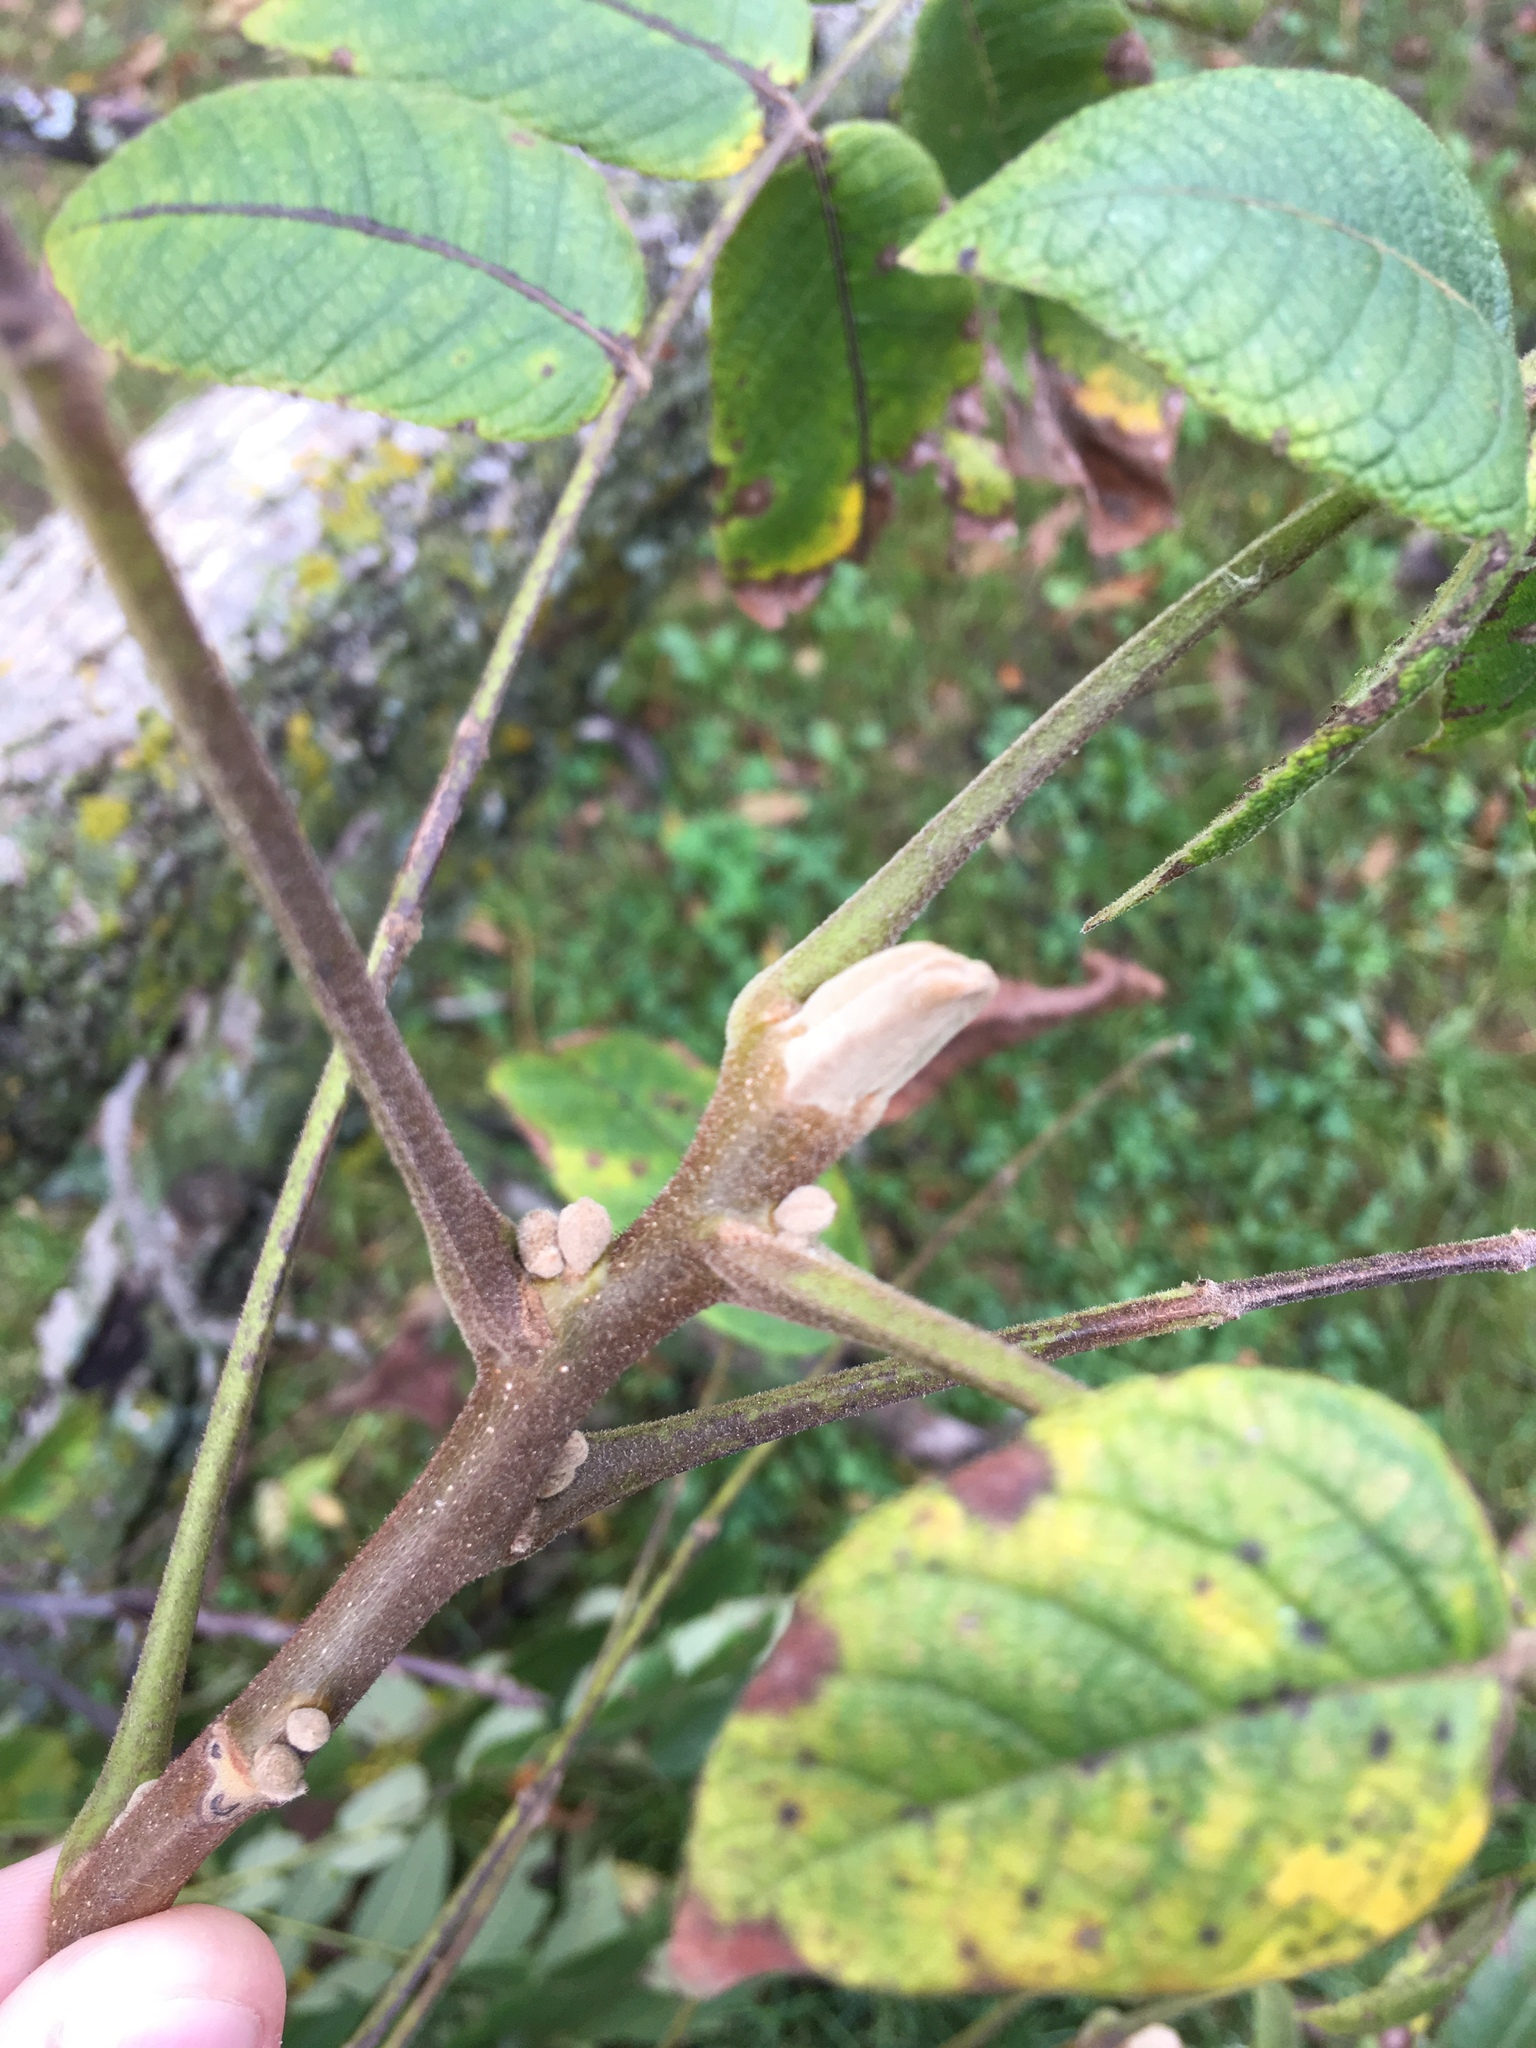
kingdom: Plantae
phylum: Tracheophyta
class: Magnoliopsida
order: Fagales
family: Juglandaceae
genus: Juglans
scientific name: Juglans cinerea
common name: Butternut
